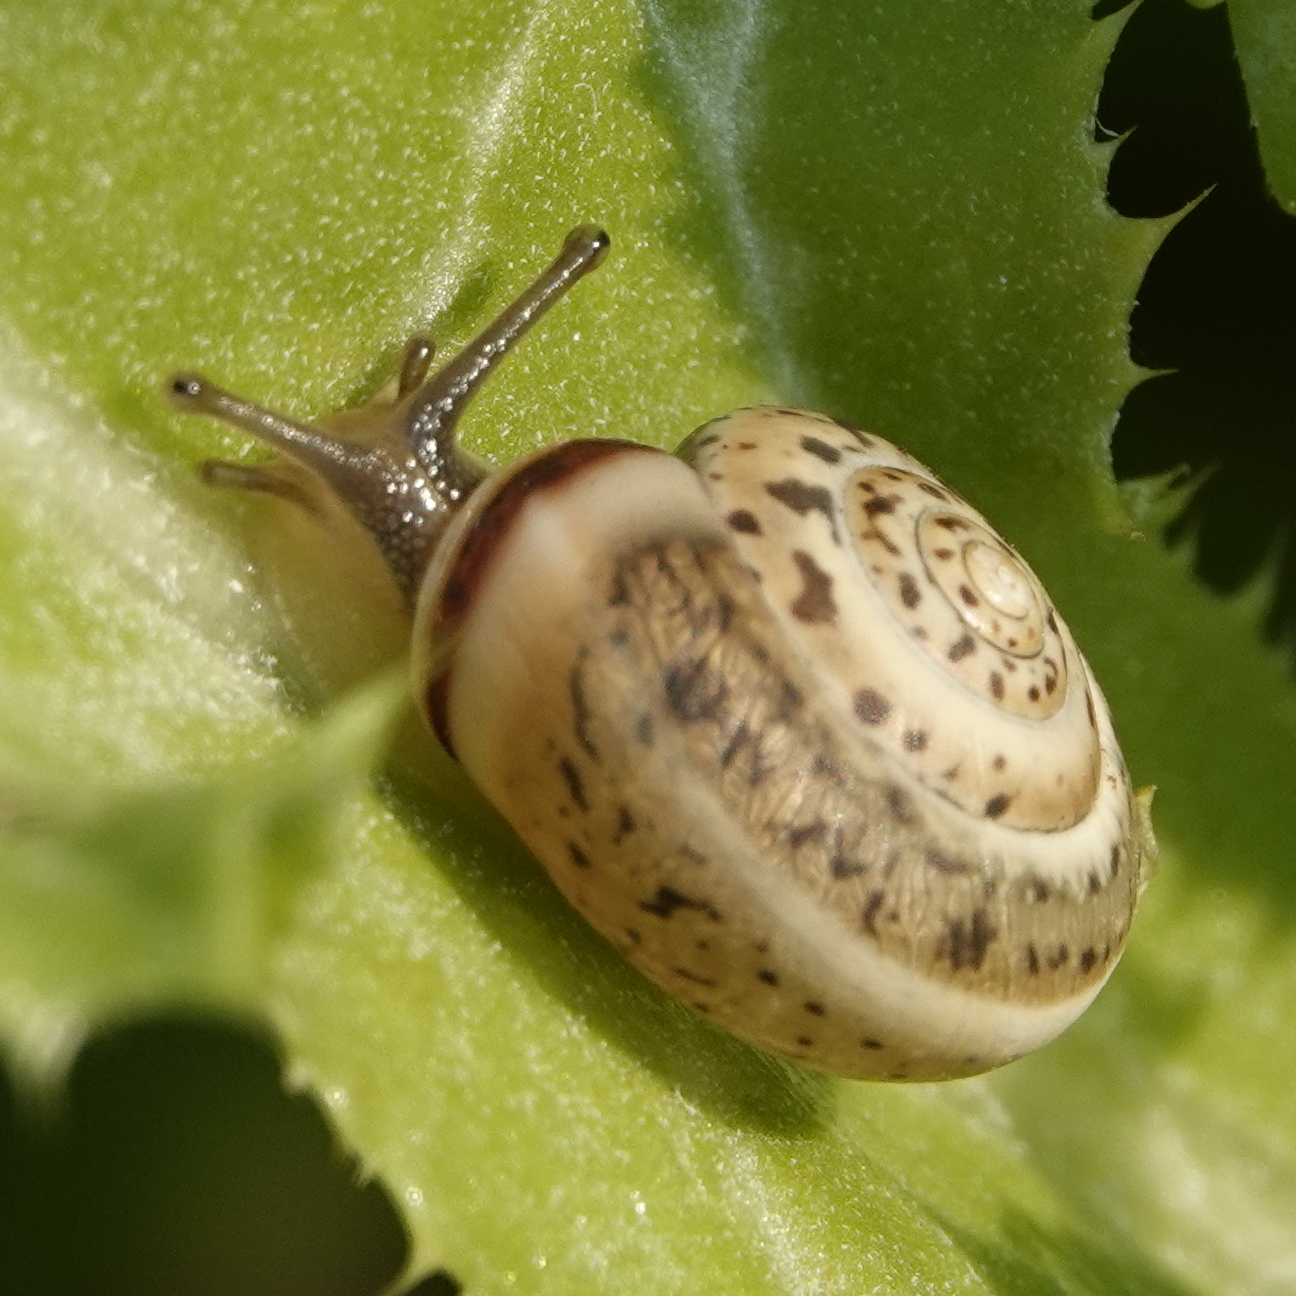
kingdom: Animalia
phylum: Mollusca
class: Gastropoda
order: Stylommatophora
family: Hygromiidae
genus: Monacha
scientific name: Monacha syriaca
